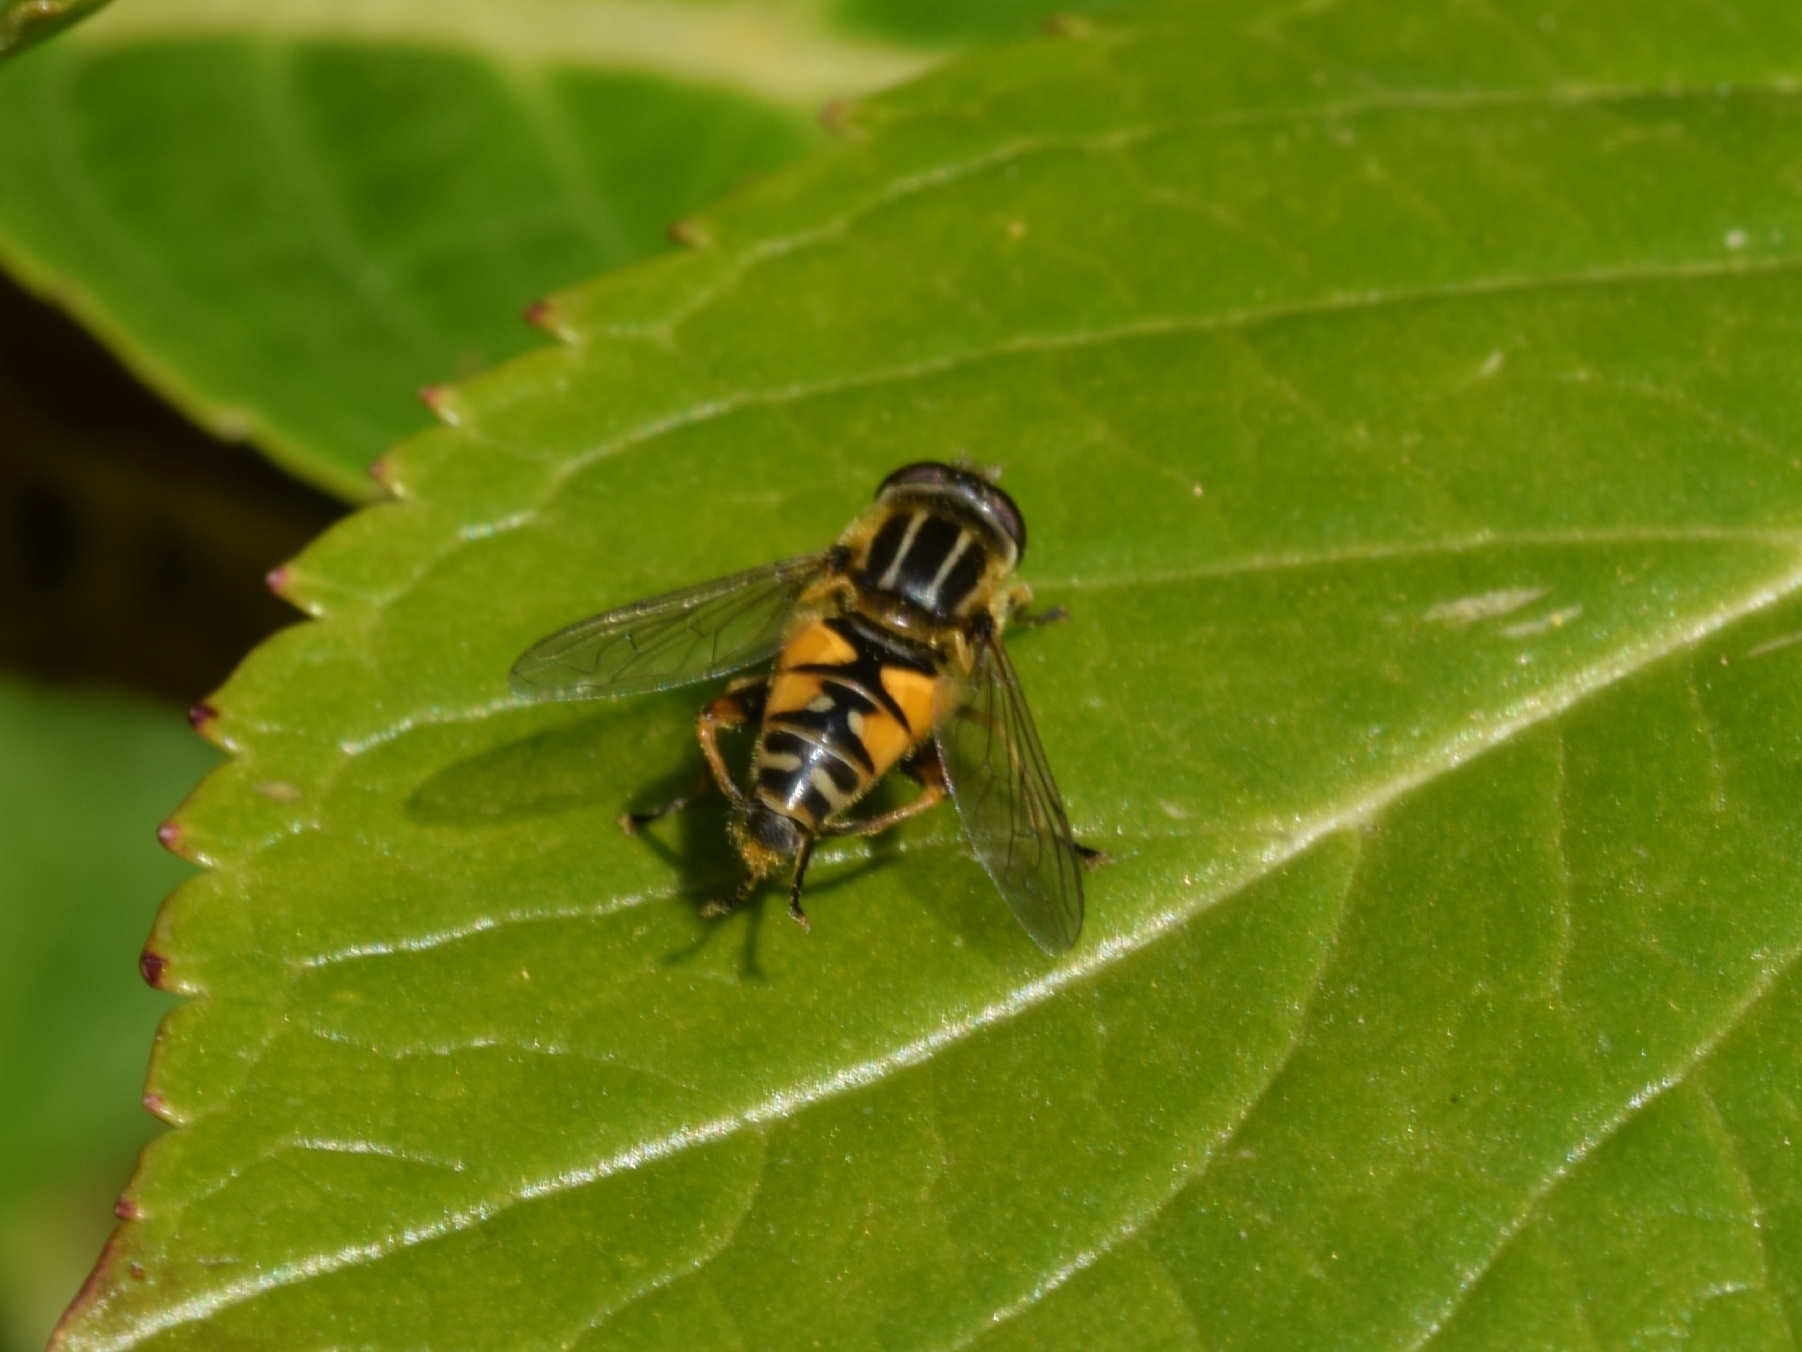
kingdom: Animalia
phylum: Arthropoda
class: Insecta
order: Diptera
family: Syrphidae
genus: Helophilus
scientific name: Helophilus pendulus
